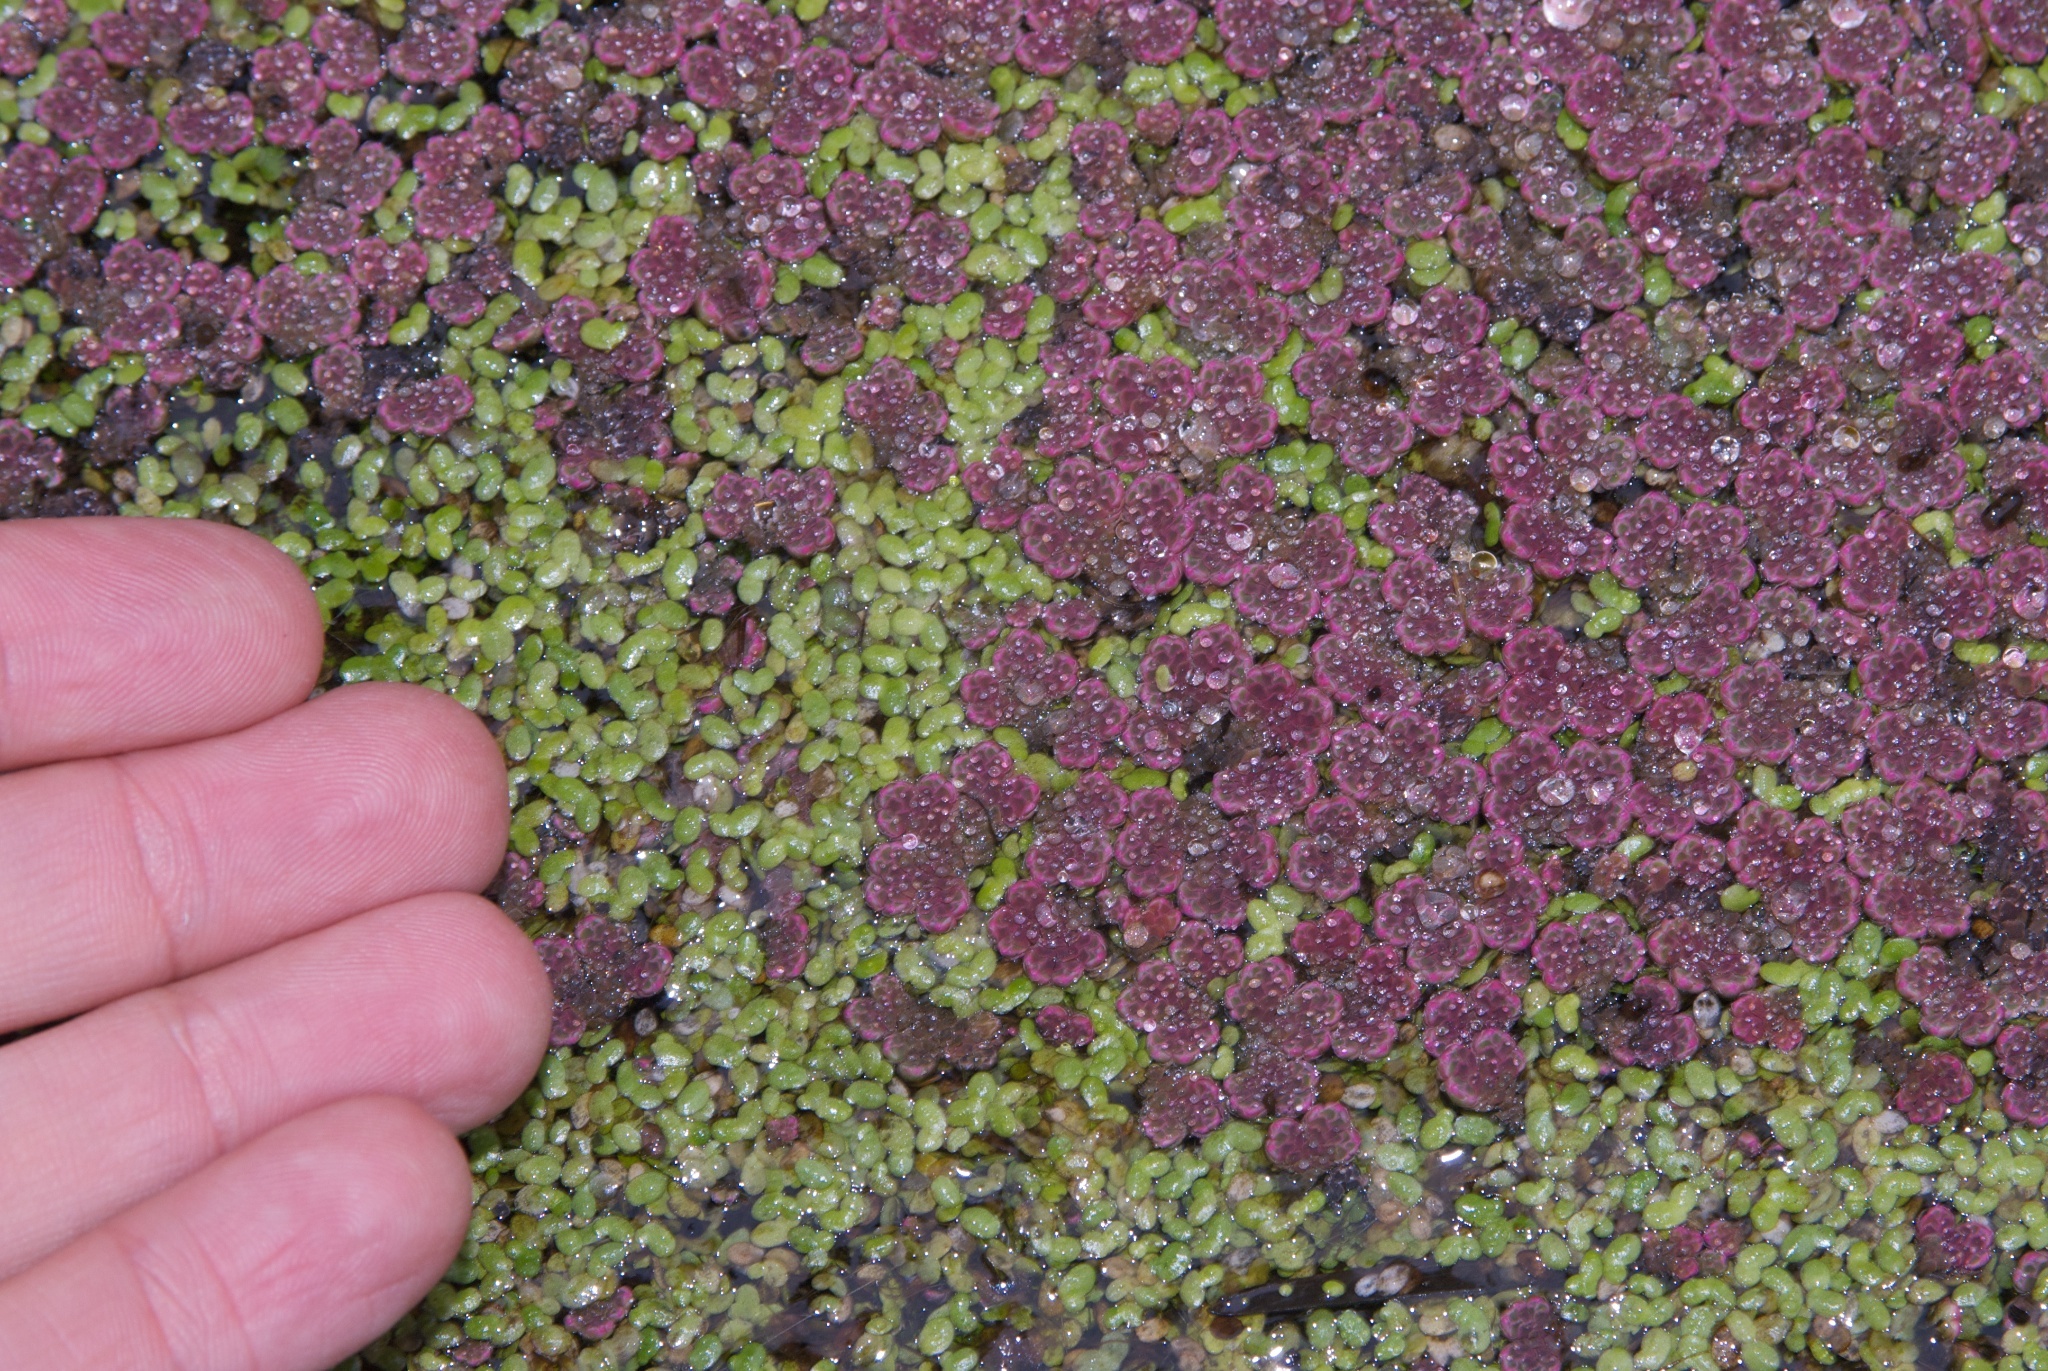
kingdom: Plantae
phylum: Tracheophyta
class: Polypodiopsida
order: Salviniales
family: Salviniaceae
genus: Azolla
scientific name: Azolla rubra
